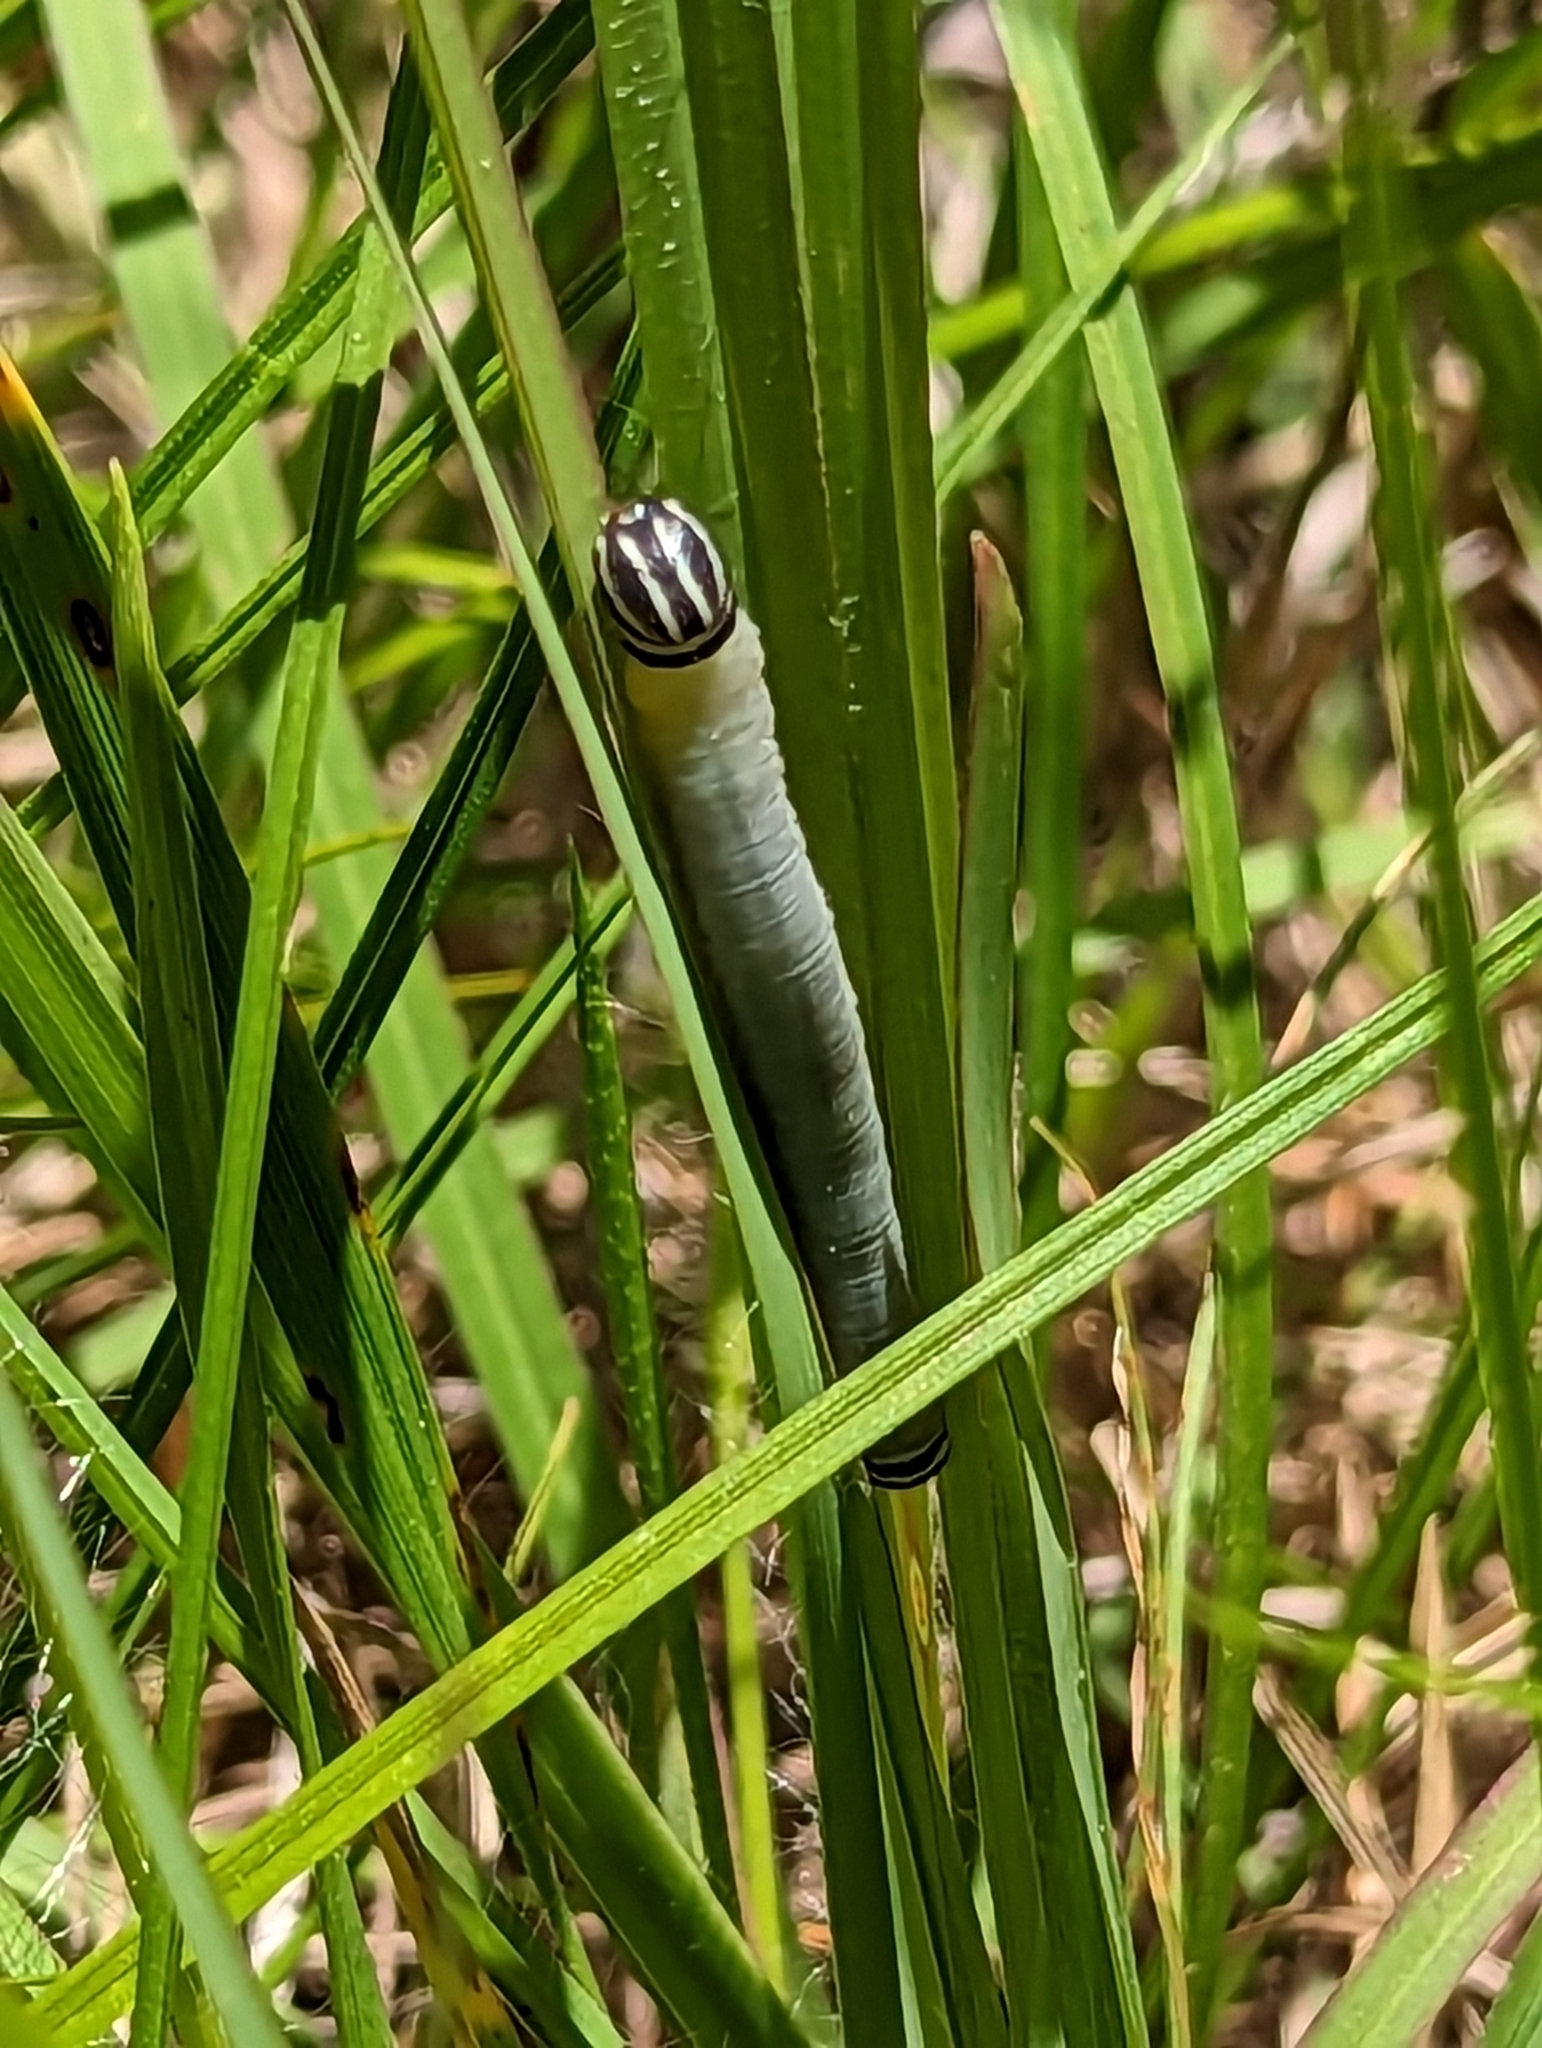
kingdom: Animalia
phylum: Arthropoda
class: Insecta
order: Lepidoptera
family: Hesperiidae
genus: Lerema
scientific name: Lerema accius
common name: Clouded skipper
